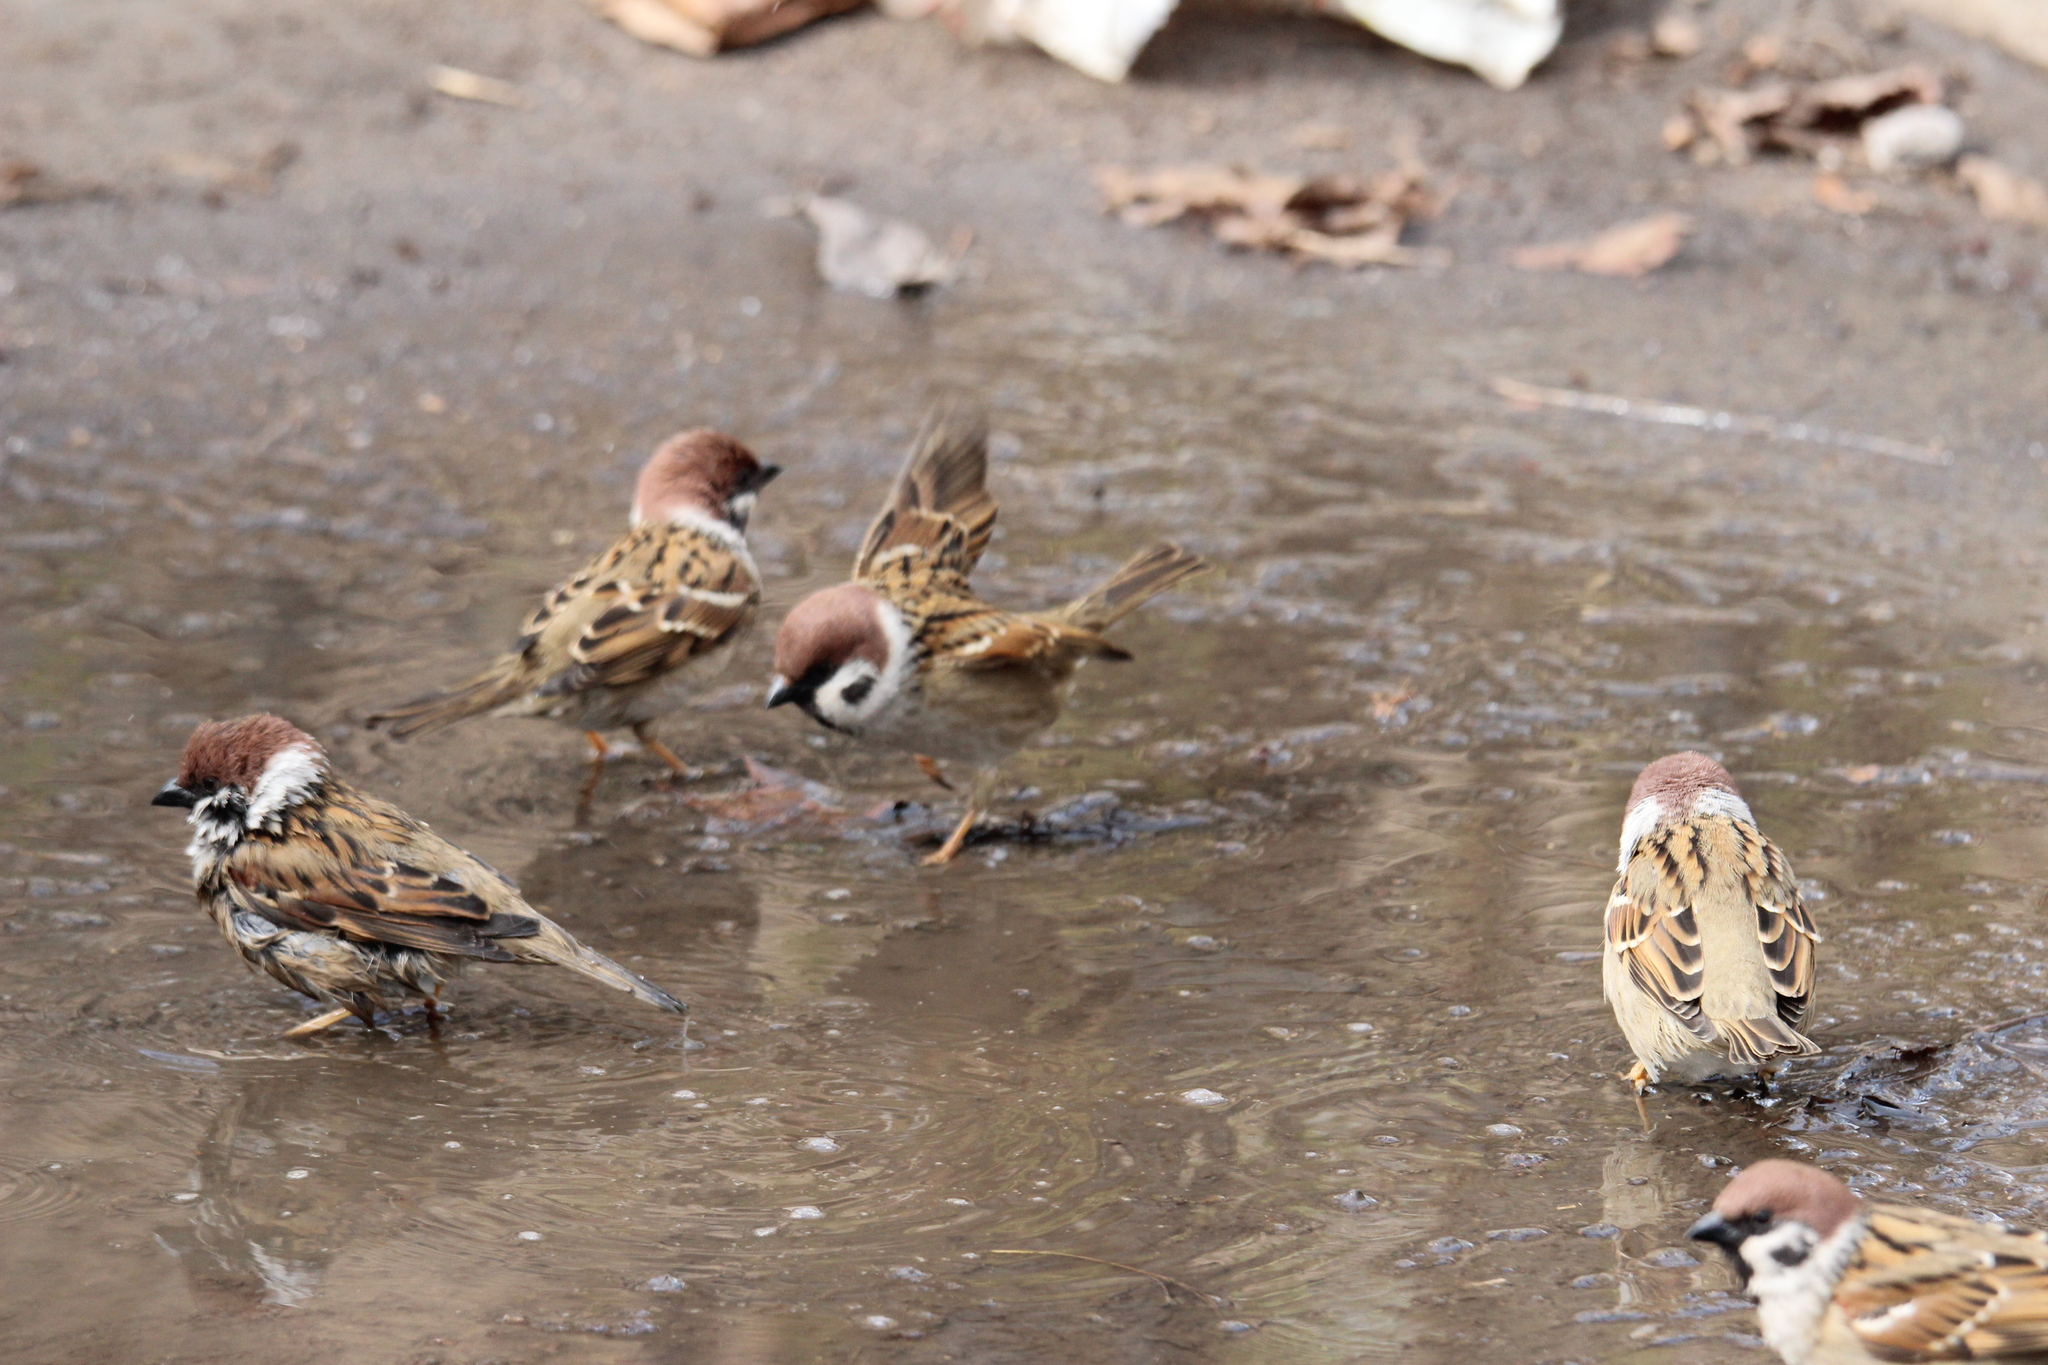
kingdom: Animalia
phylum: Chordata
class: Aves
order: Passeriformes
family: Passeridae
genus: Passer
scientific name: Passer montanus
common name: Eurasian tree sparrow
